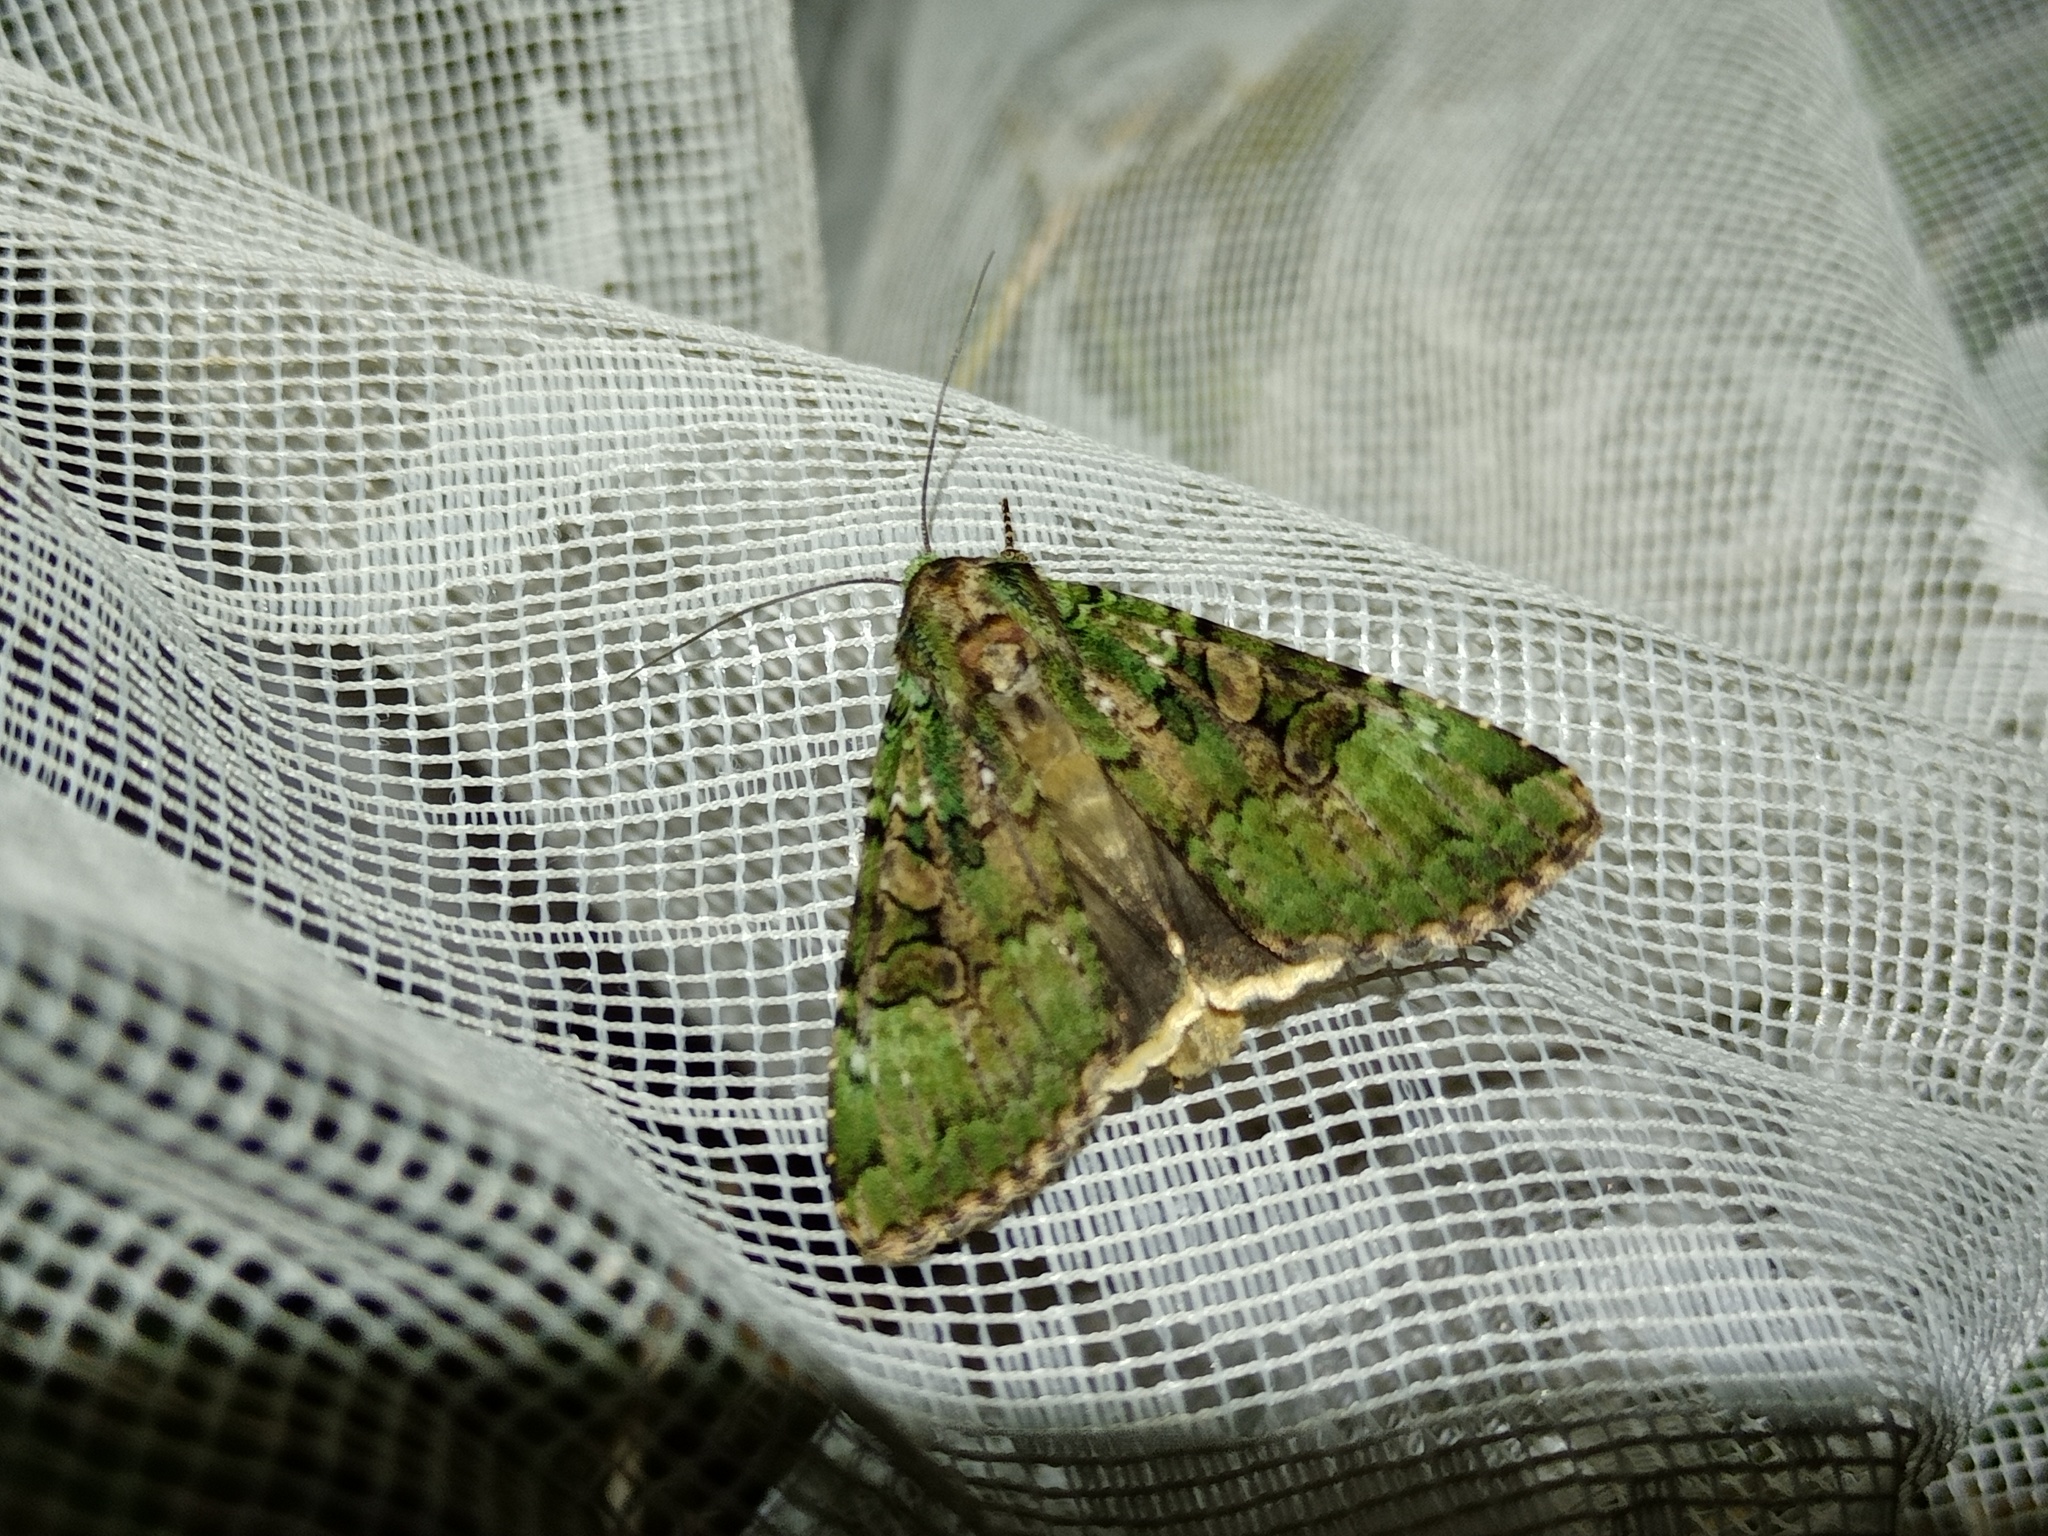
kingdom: Animalia
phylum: Arthropoda
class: Insecta
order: Lepidoptera
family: Noctuidae
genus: Anaplectoides
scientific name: Anaplectoides prasina
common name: Green arches
